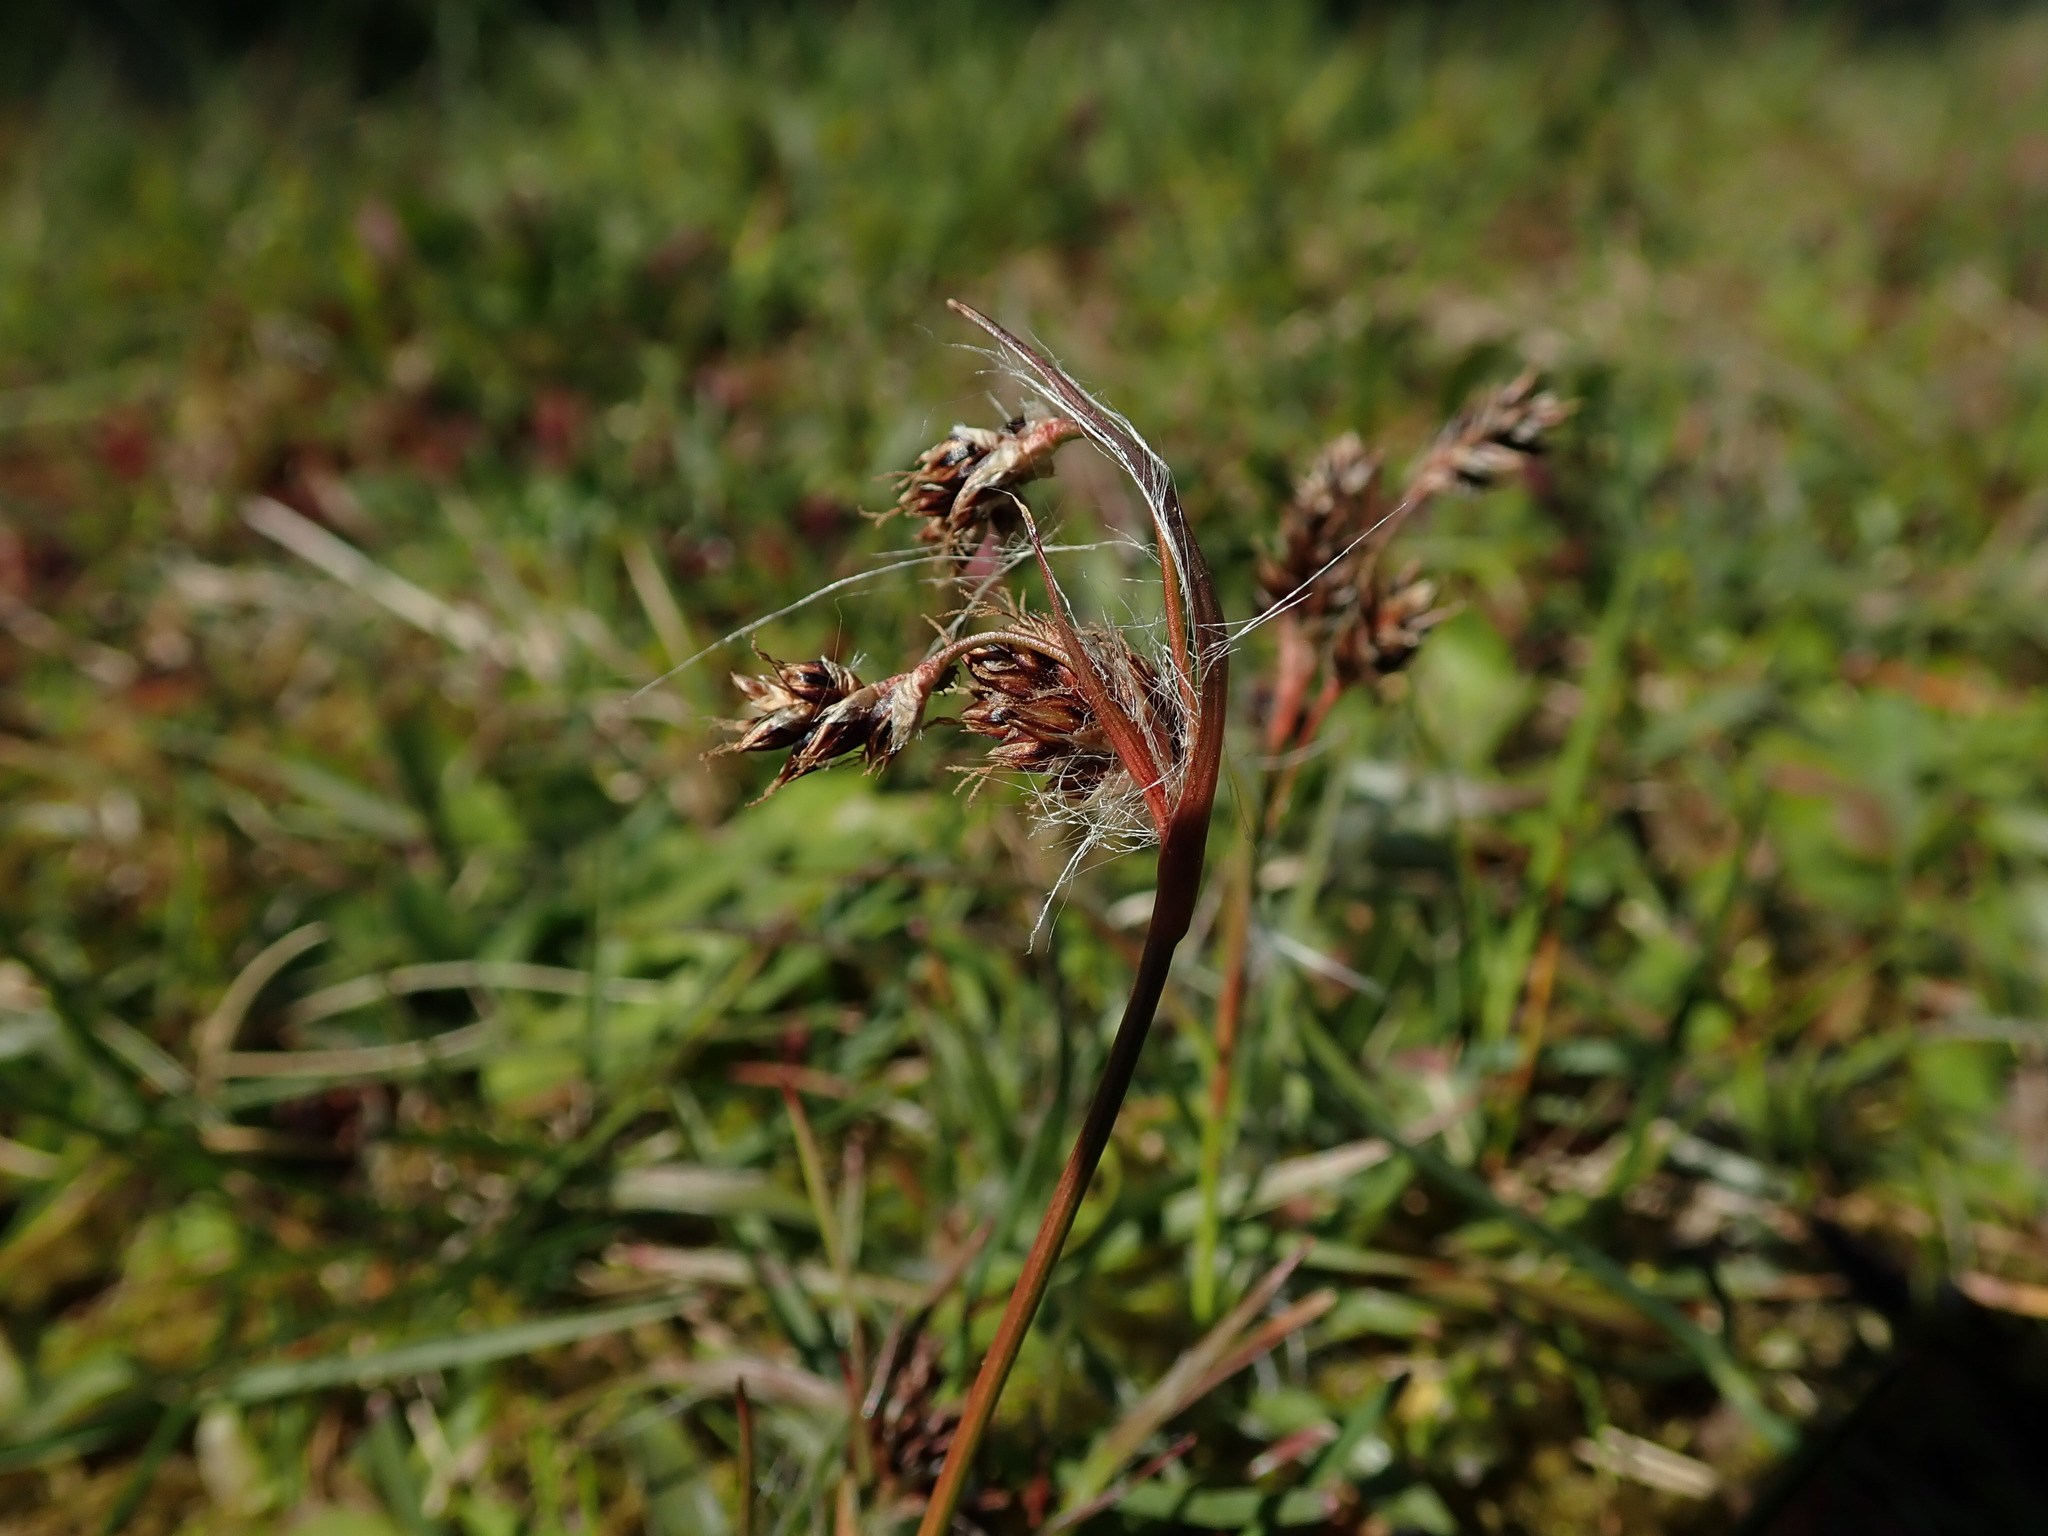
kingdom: Plantae
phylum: Tracheophyta
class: Liliopsida
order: Poales
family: Juncaceae
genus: Luzula
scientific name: Luzula campestris
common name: Field wood-rush
